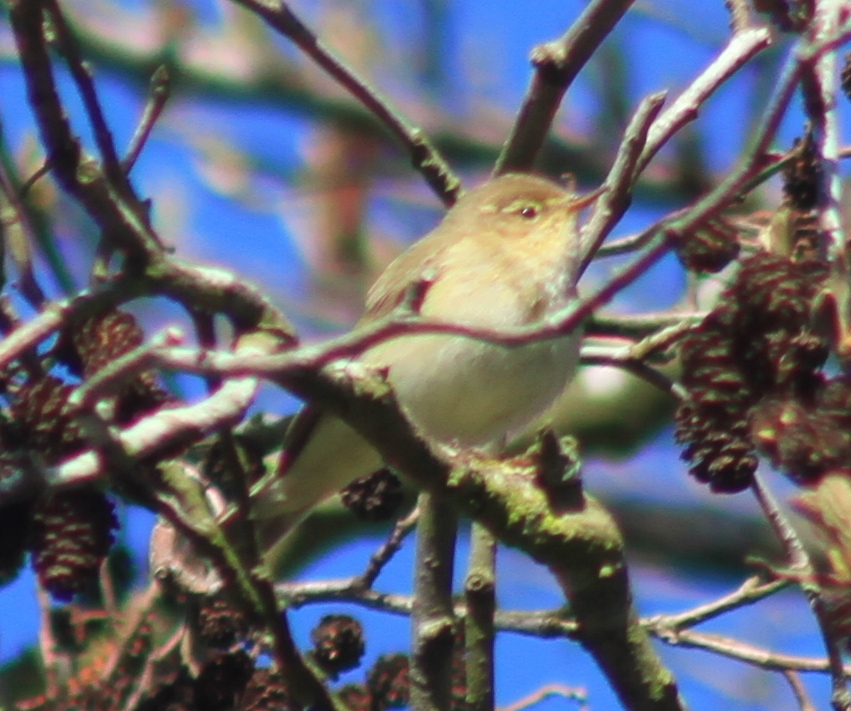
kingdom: Animalia
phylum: Chordata
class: Aves
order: Passeriformes
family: Phylloscopidae
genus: Phylloscopus
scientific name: Phylloscopus collybita
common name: Common chiffchaff
